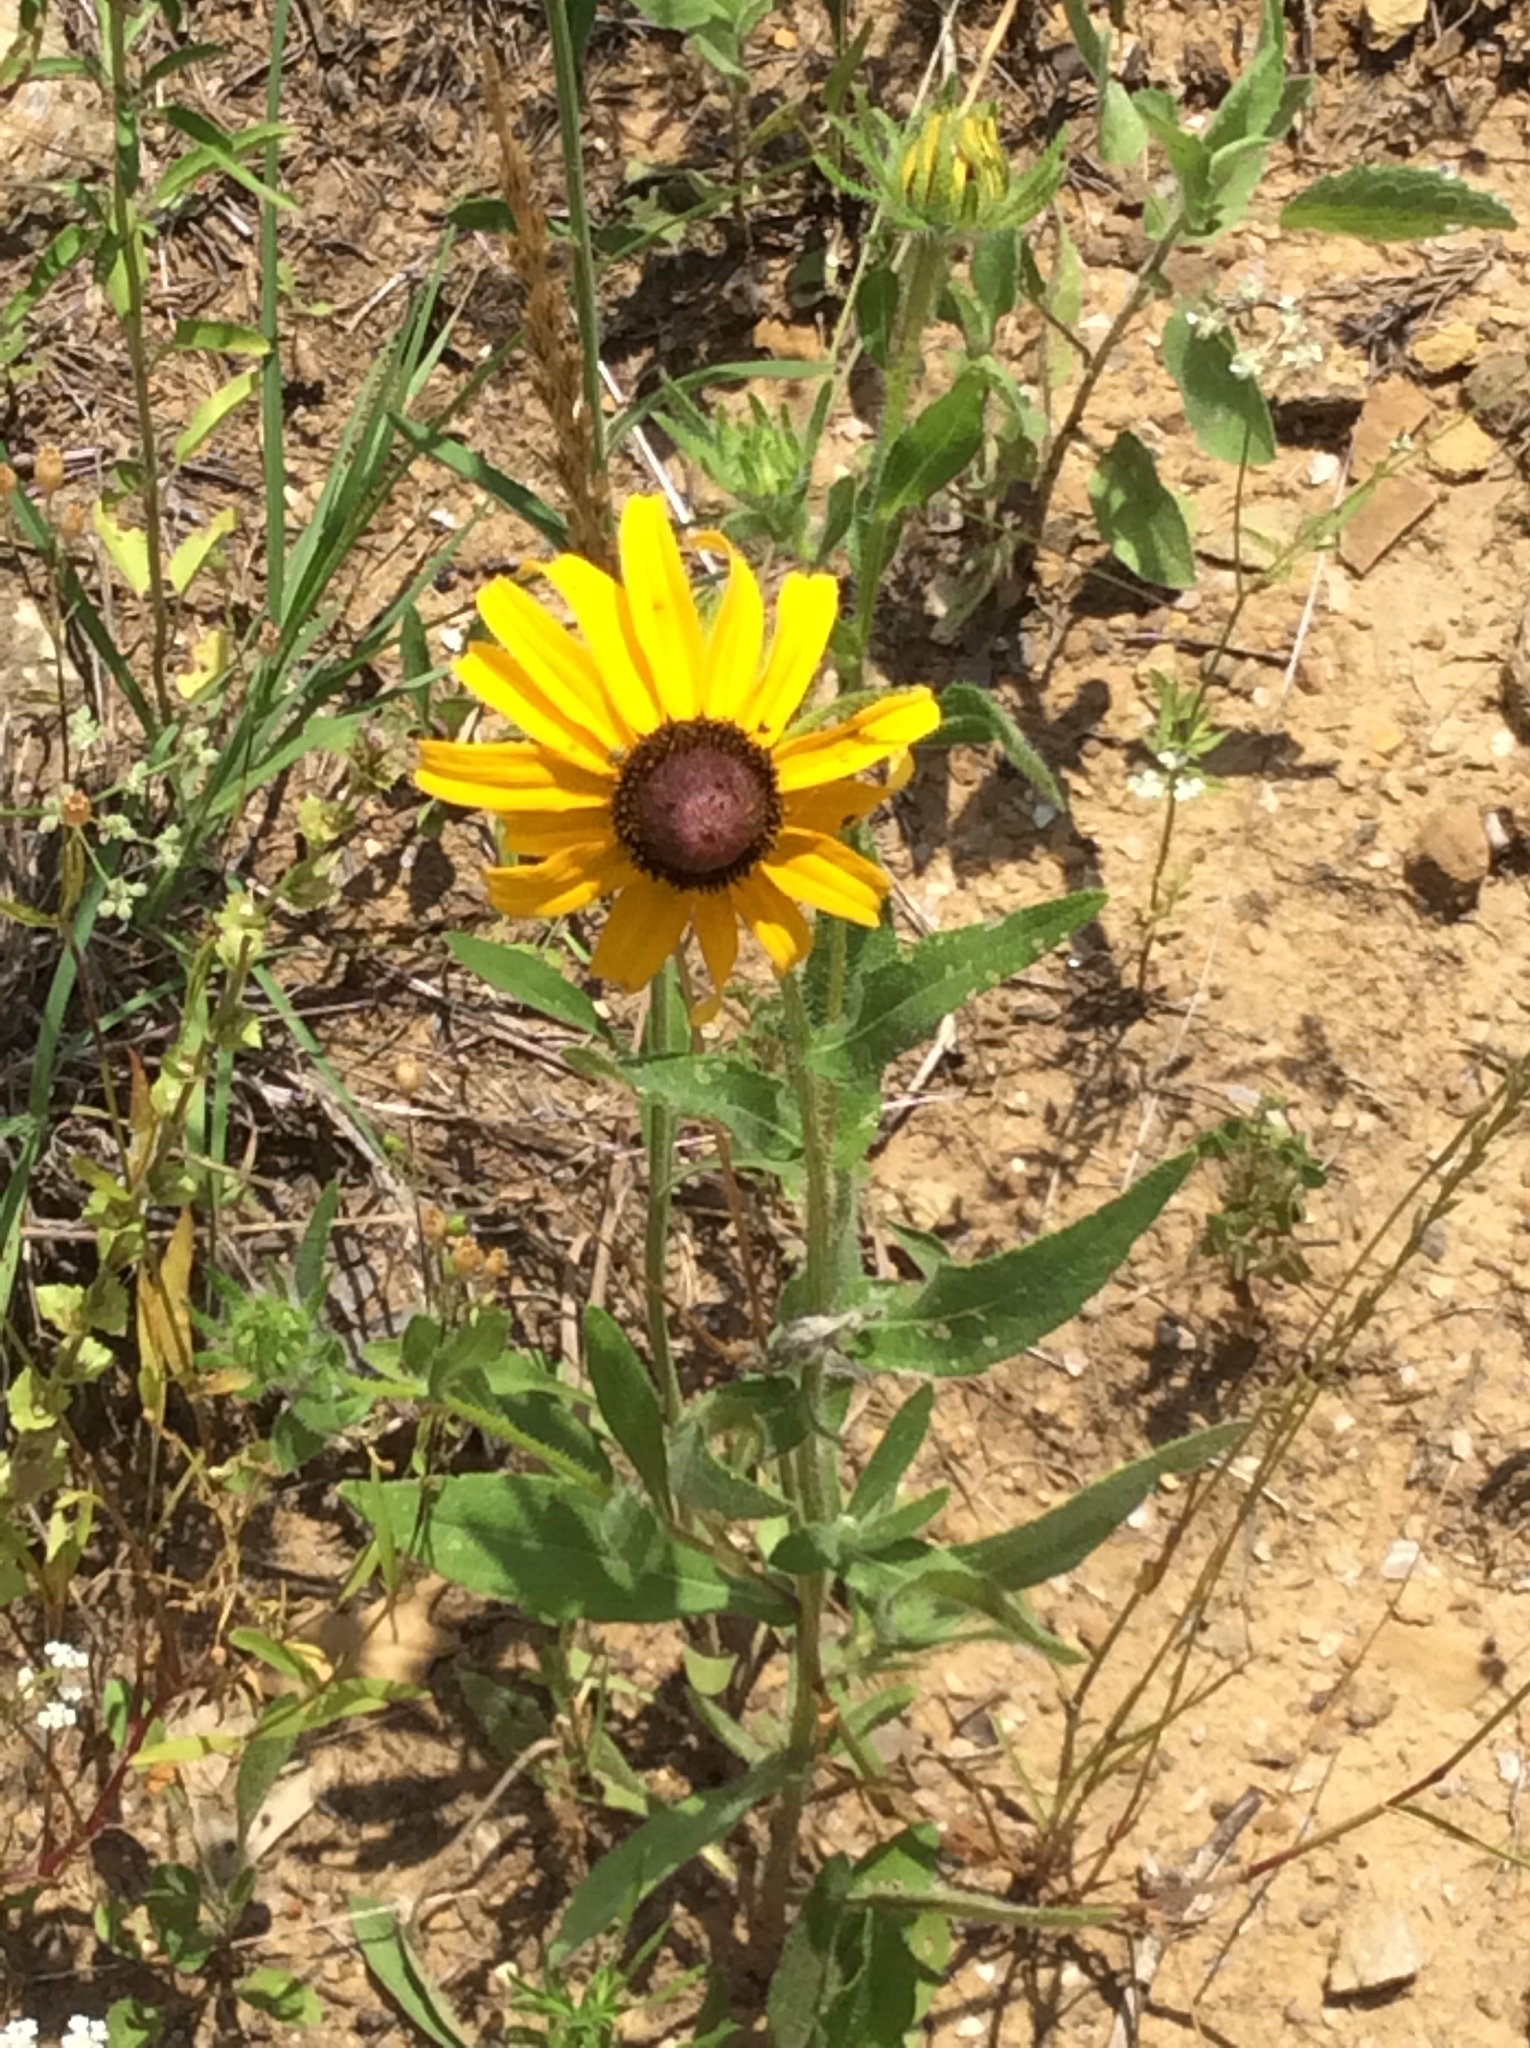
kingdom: Plantae
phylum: Tracheophyta
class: Magnoliopsida
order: Asterales
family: Asteraceae
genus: Rudbeckia
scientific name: Rudbeckia hirta
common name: Black-eyed-susan
